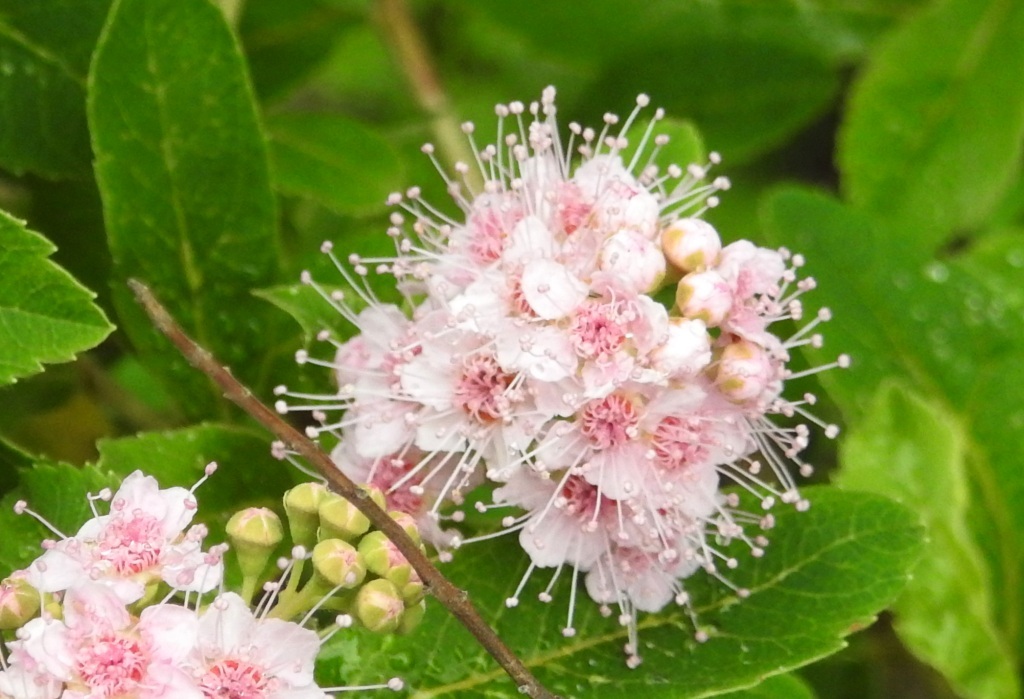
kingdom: Plantae
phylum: Tracheophyta
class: Magnoliopsida
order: Rosales
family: Rosaceae
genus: Spiraea
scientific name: Spiraea salicifolia
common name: Bridewort
